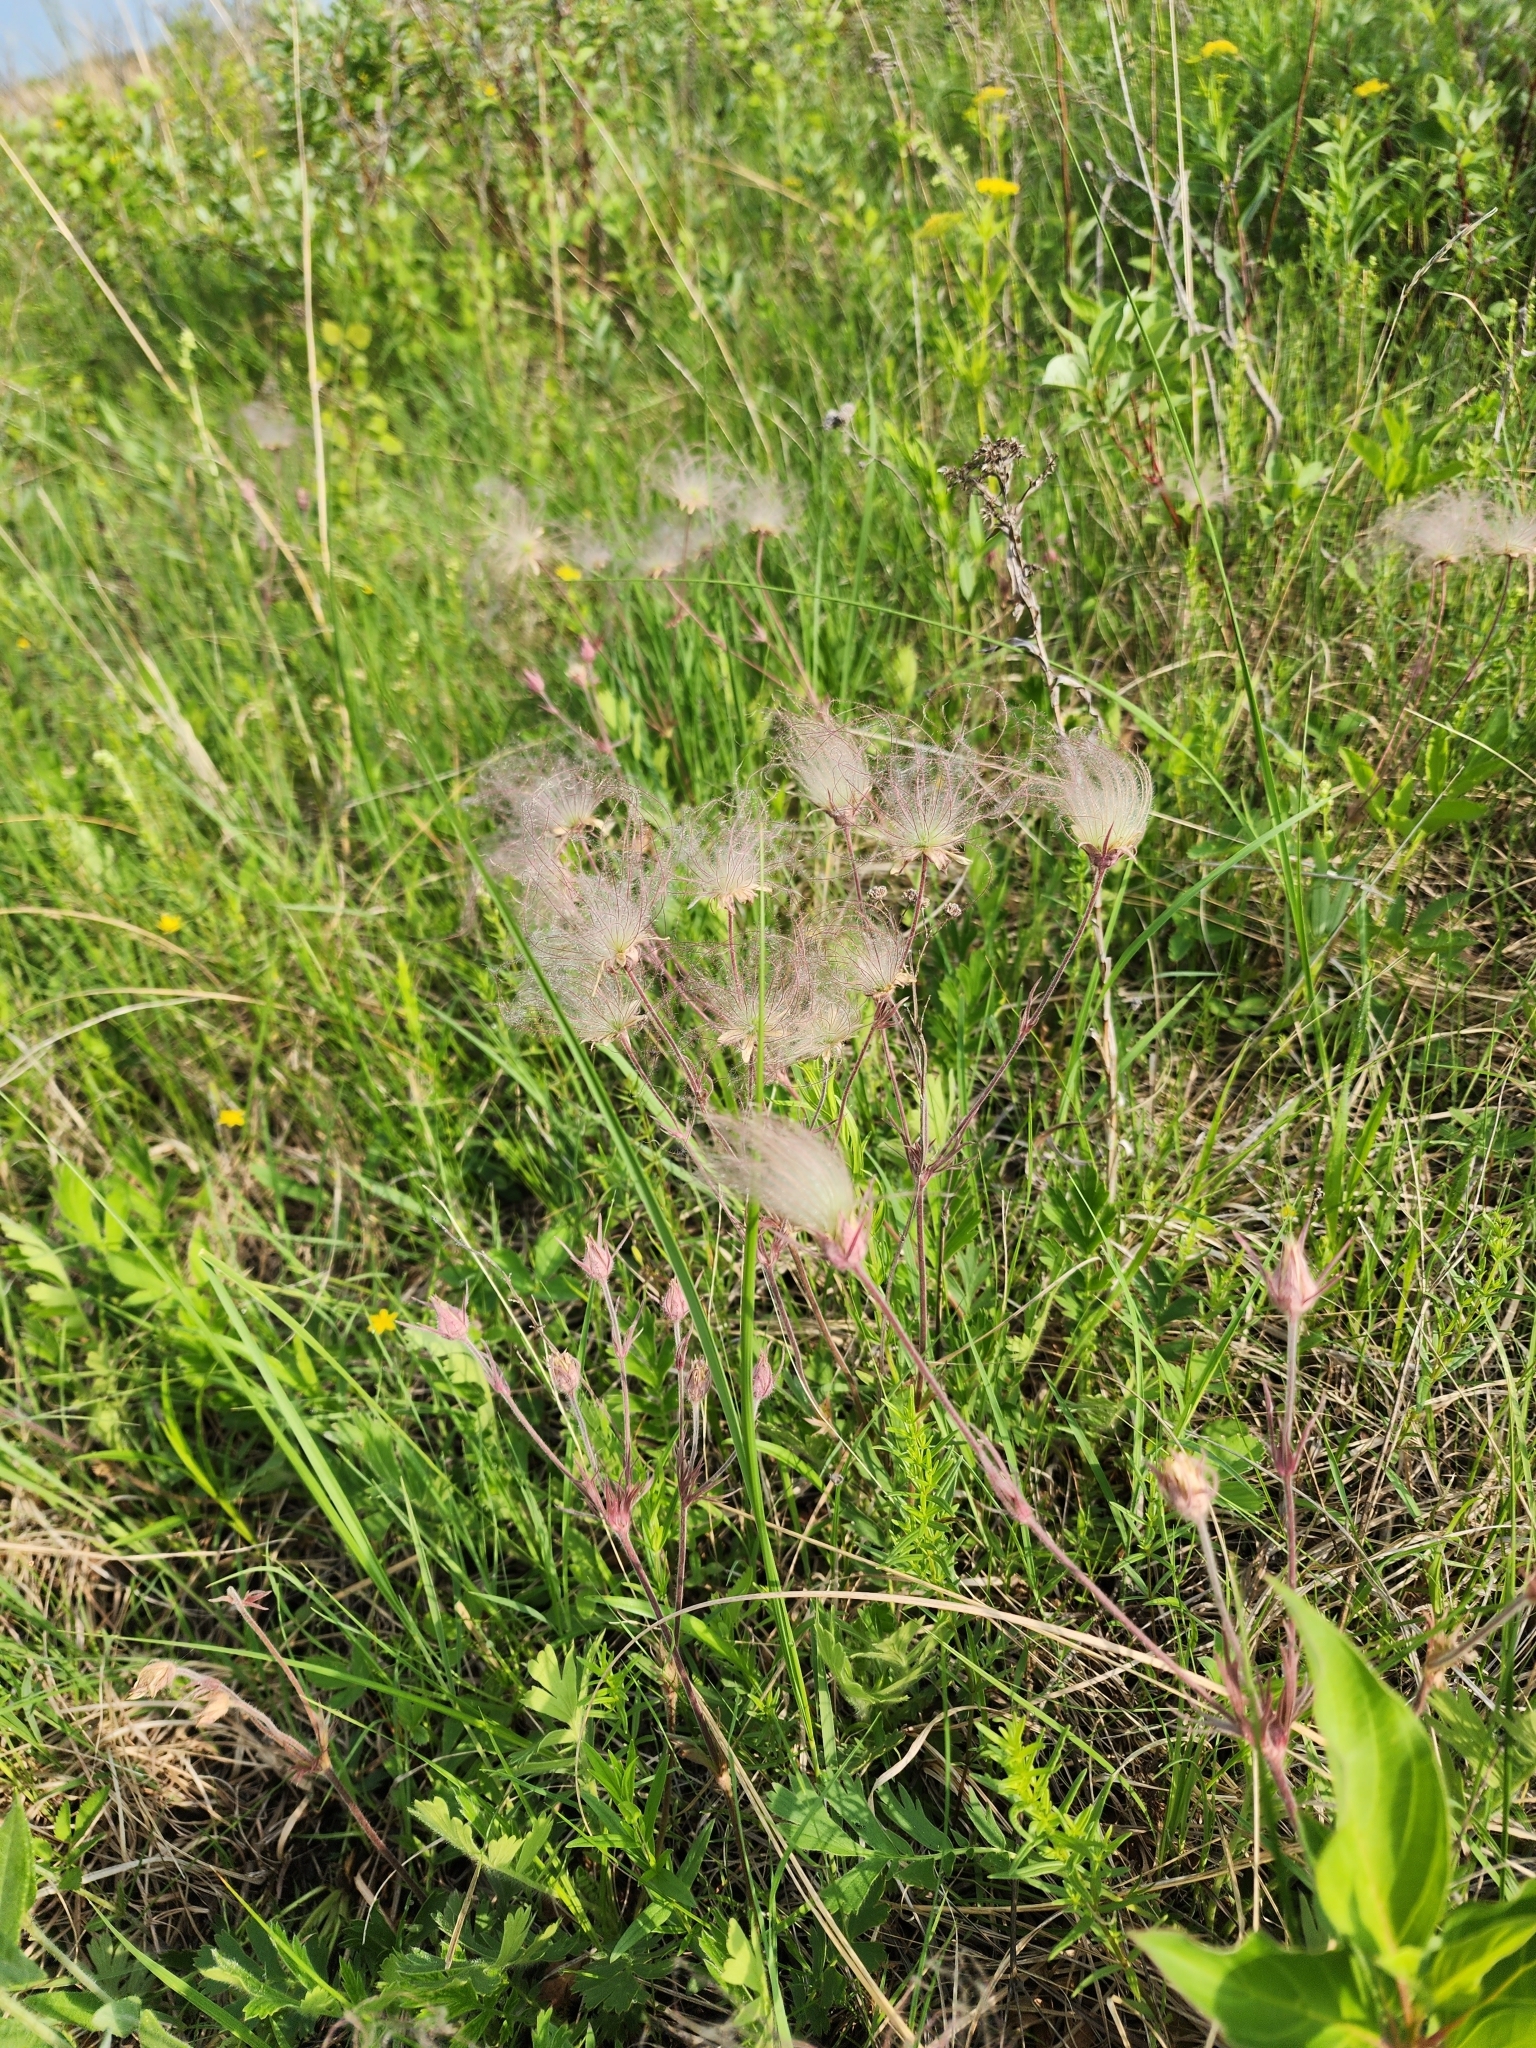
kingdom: Plantae
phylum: Tracheophyta
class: Magnoliopsida
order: Rosales
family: Rosaceae
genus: Geum
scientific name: Geum triflorum
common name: Old man's whiskers
